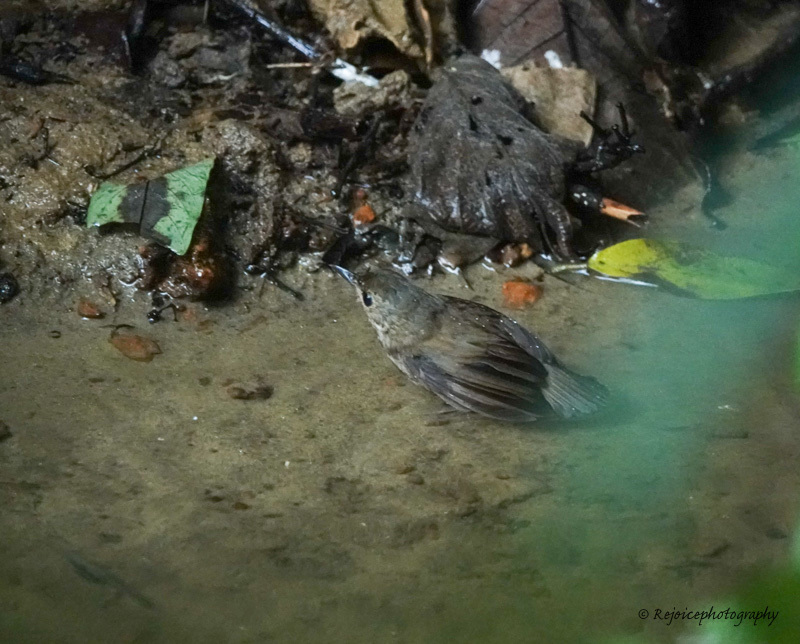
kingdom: Animalia
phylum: Chordata
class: Aves
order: Passeriformes
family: Muscicapidae
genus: Brachypteryx
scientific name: Brachypteryx leucophris
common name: Lesser shortwing
